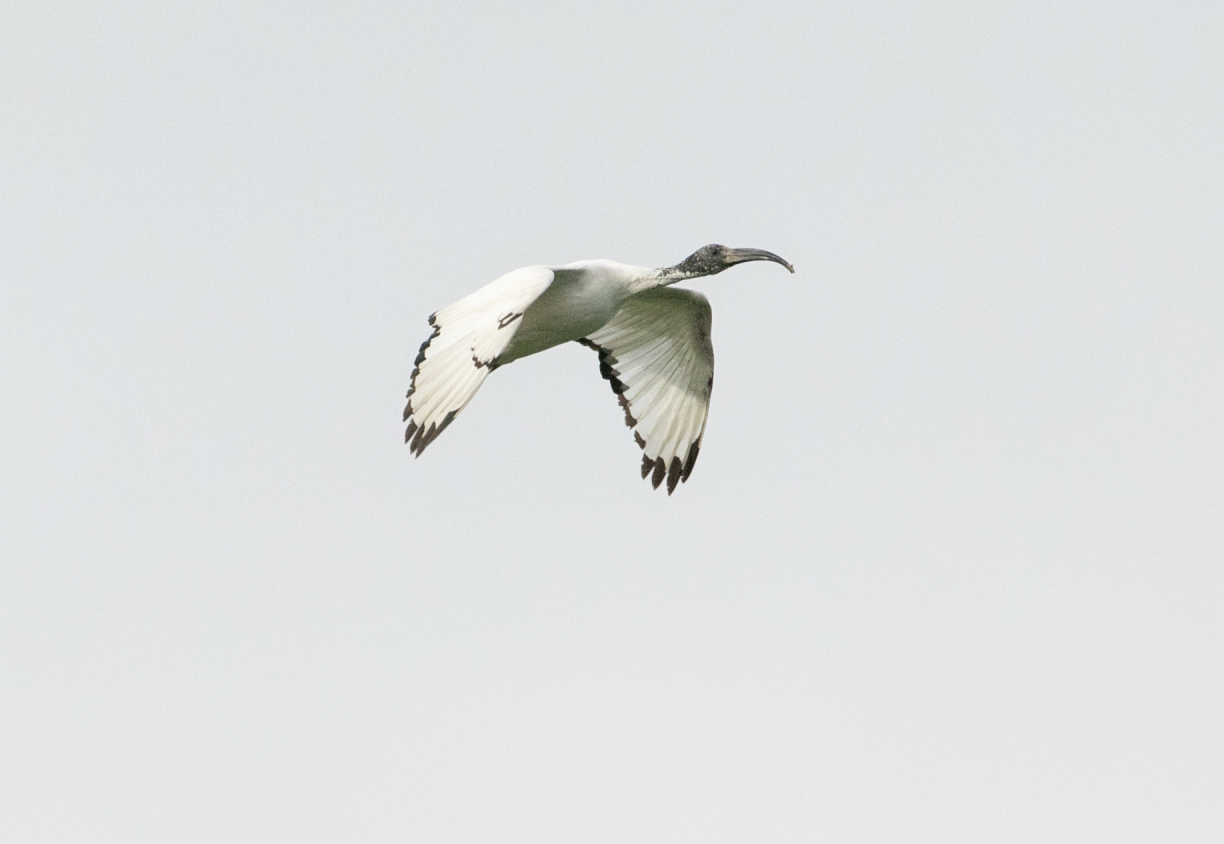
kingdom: Animalia
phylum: Chordata
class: Aves
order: Pelecaniformes
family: Threskiornithidae
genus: Threskiornis
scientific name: Threskiornis aethiopicus
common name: Sacred ibis
